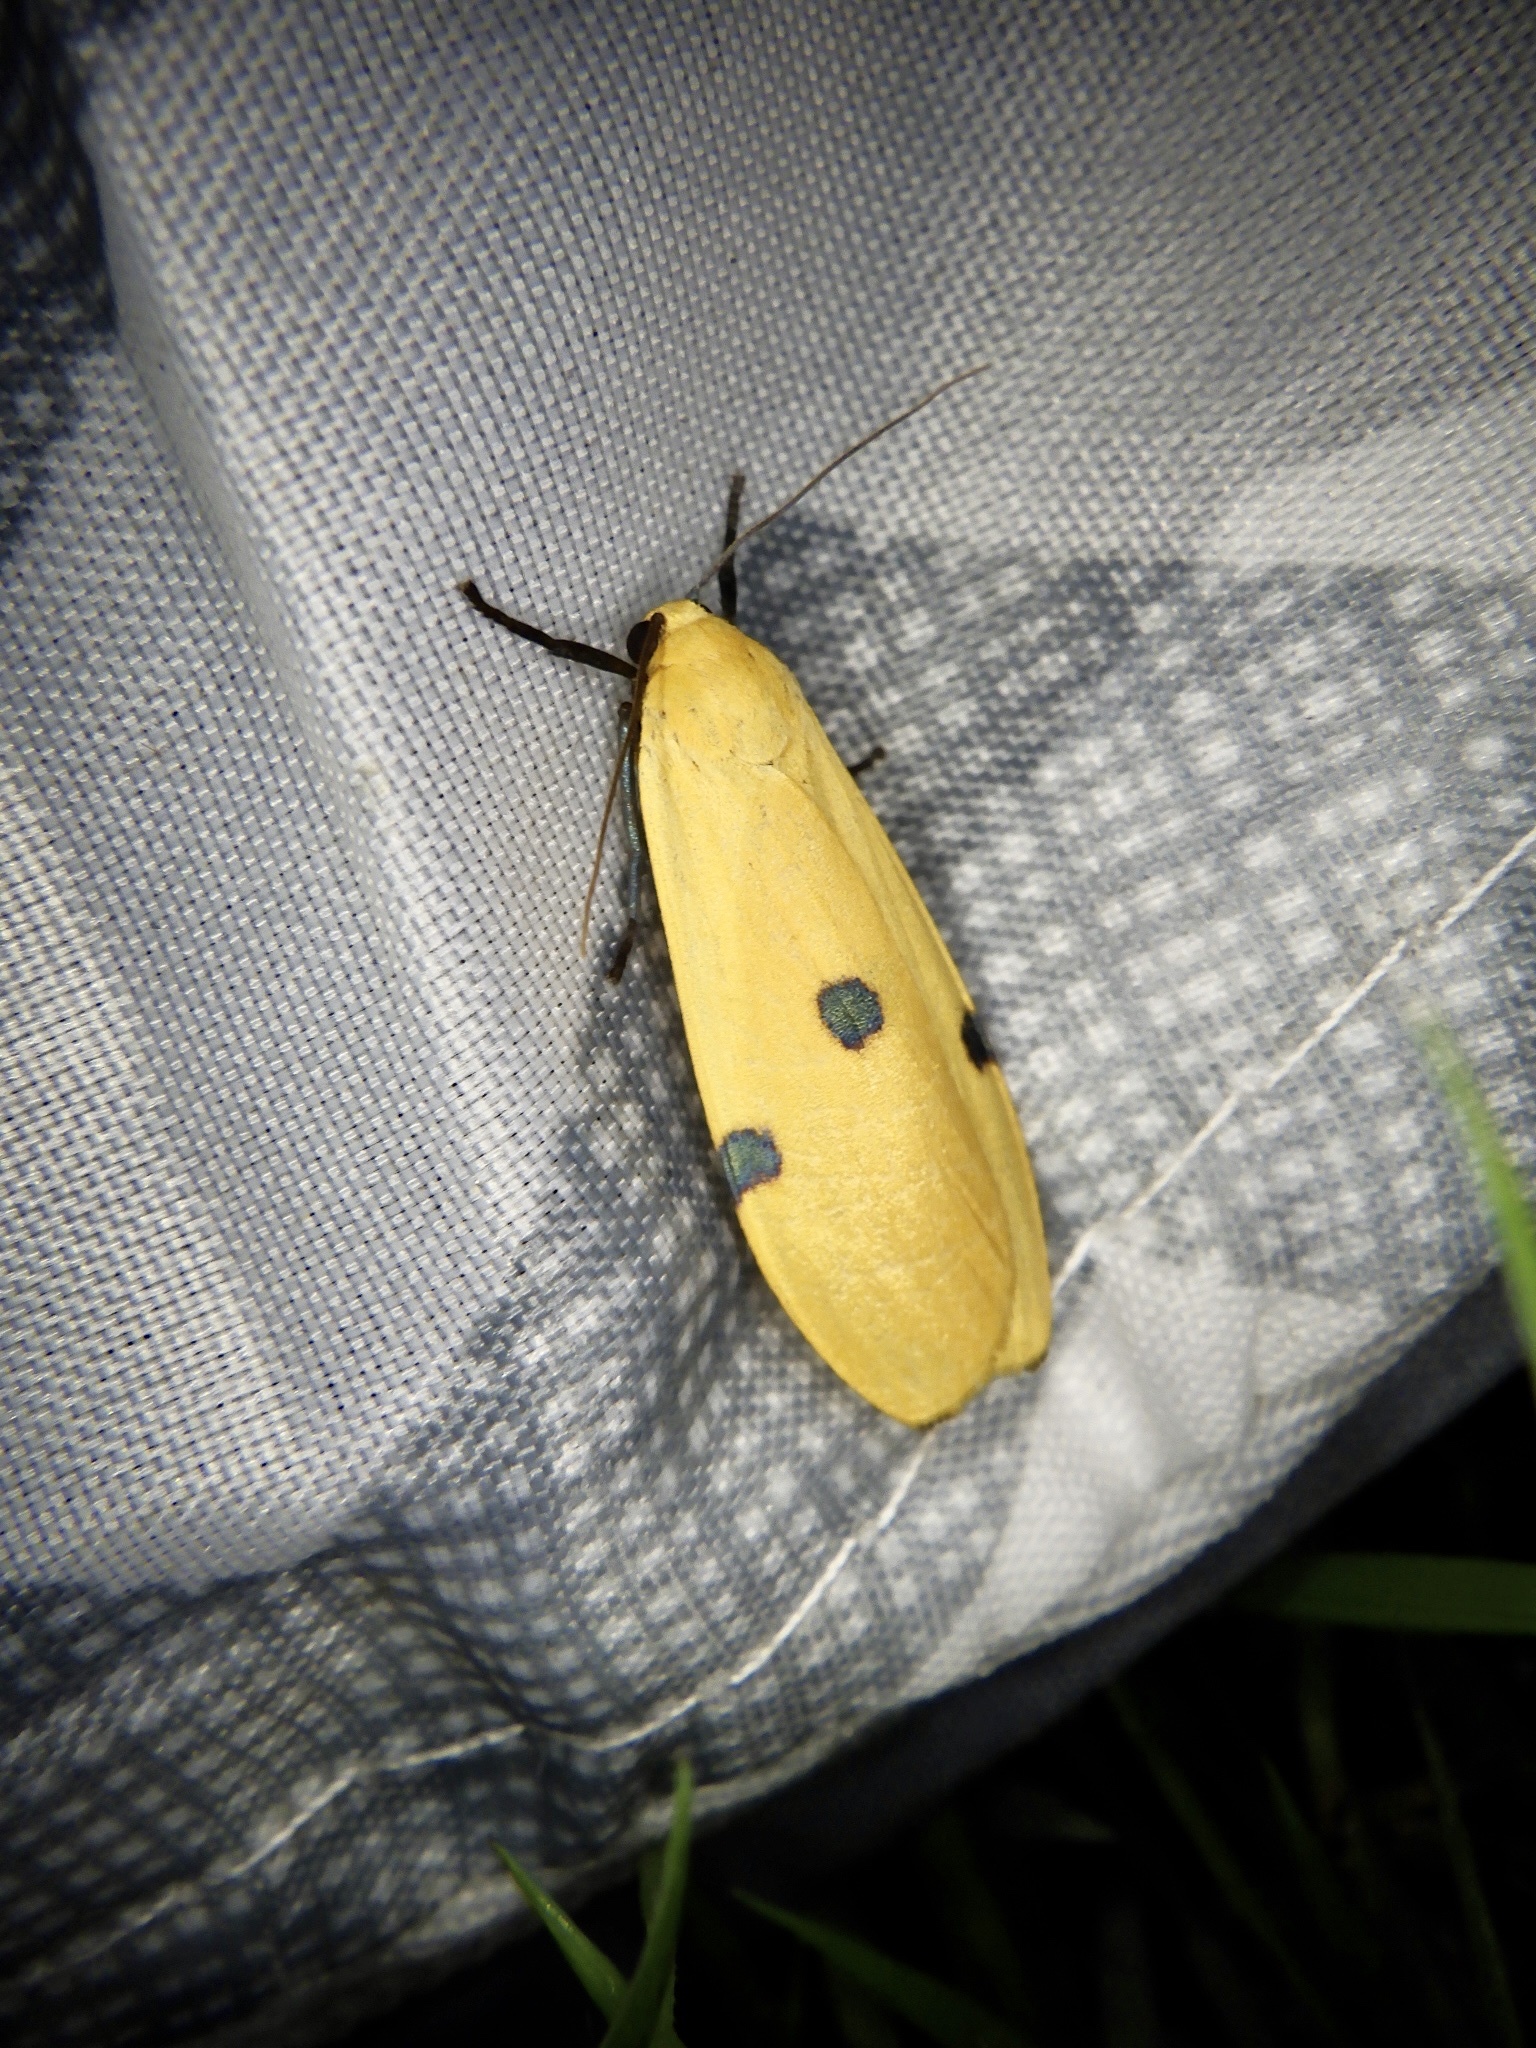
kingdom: Animalia
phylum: Arthropoda
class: Insecta
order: Lepidoptera
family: Erebidae
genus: Conilepia
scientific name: Conilepia nigricosta
